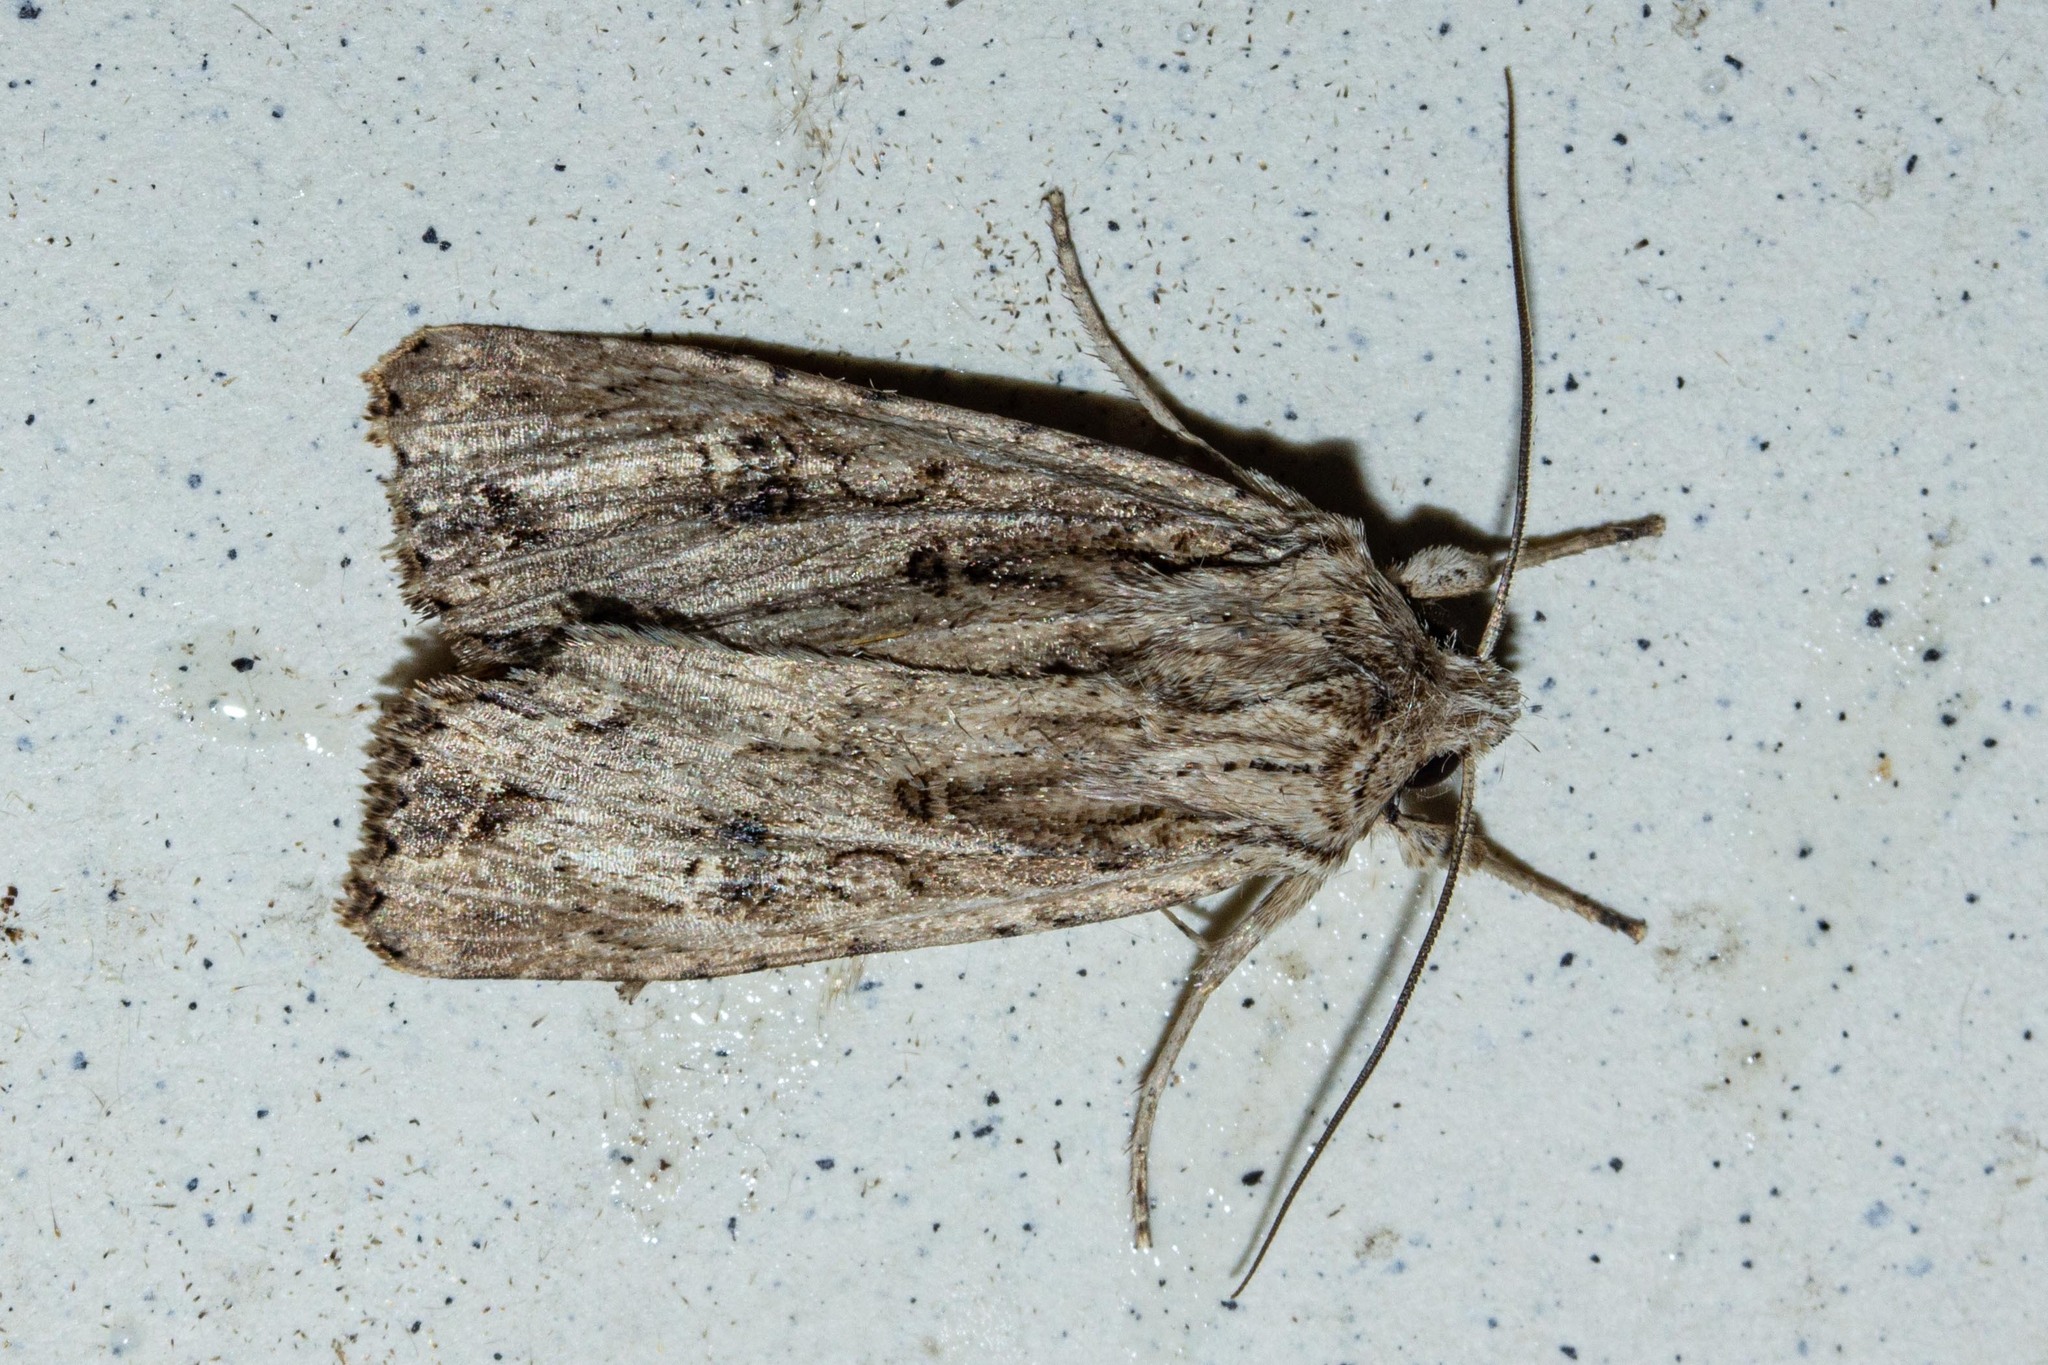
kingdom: Animalia
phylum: Arthropoda
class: Insecta
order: Lepidoptera
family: Noctuidae
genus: Ichneutica
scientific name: Ichneutica lignana
